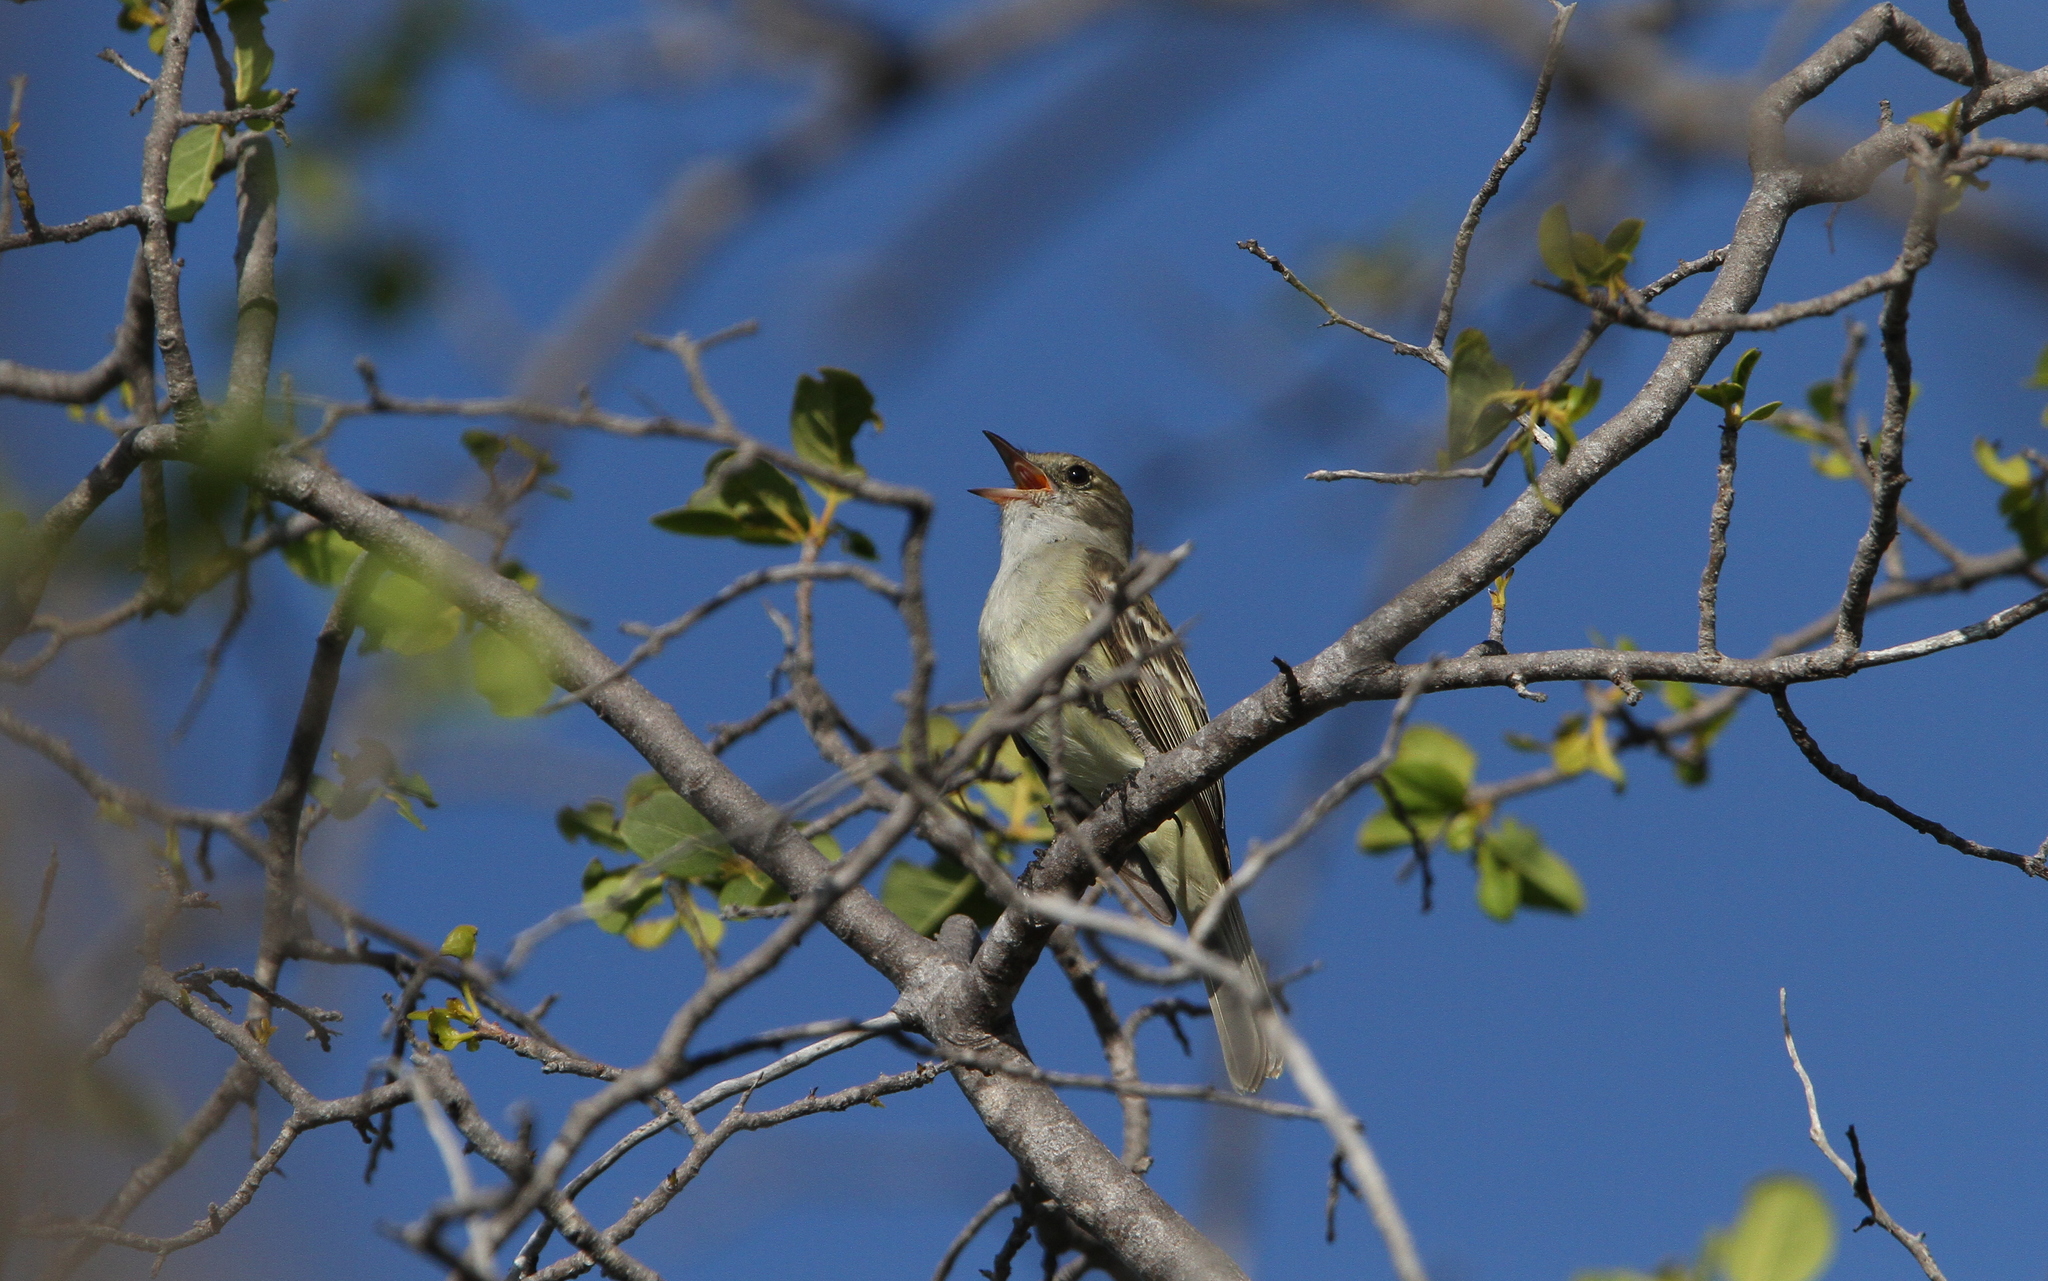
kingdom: Animalia
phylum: Chordata
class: Aves
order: Passeriformes
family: Tyrannidae
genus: Elaenia
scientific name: Elaenia martinica
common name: Caribbean elaenia
